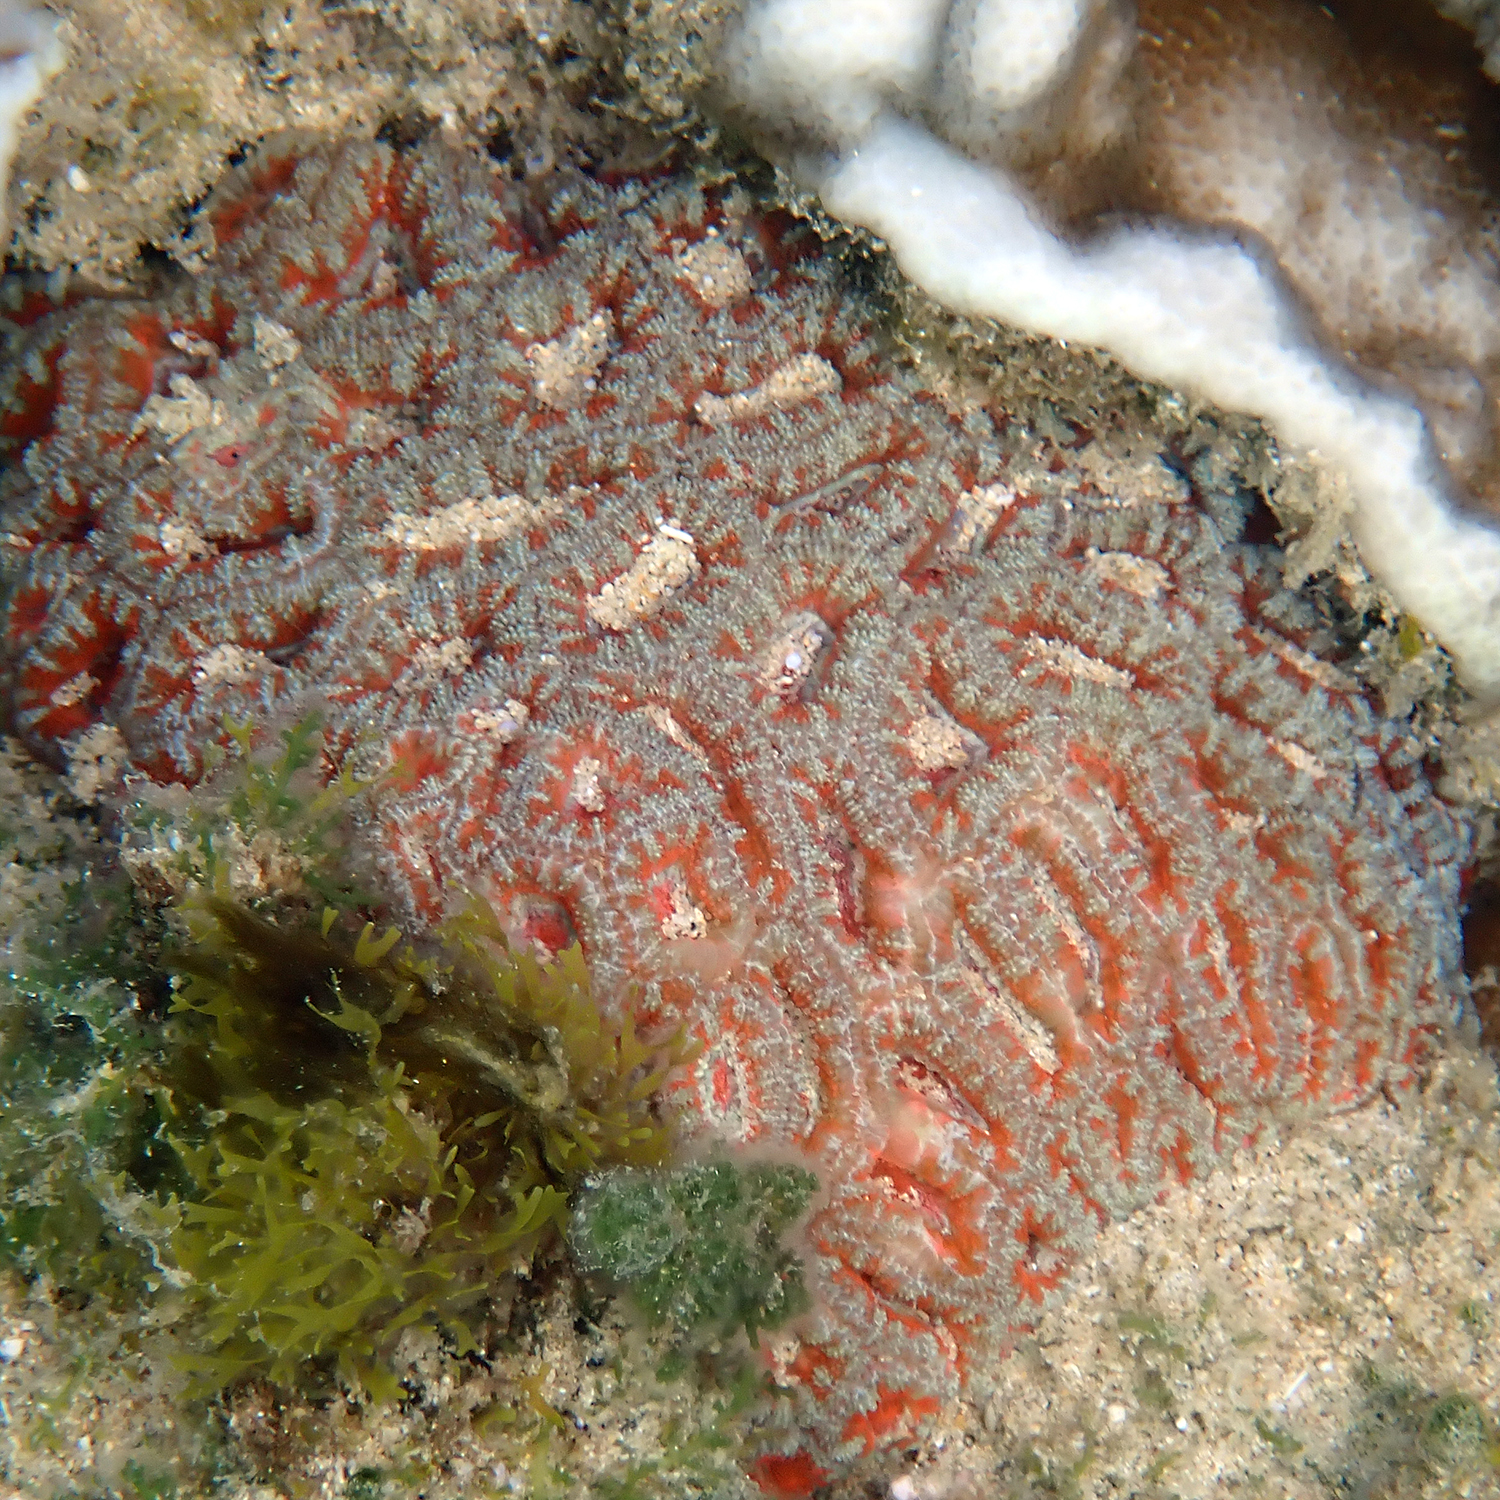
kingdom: Animalia
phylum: Cnidaria
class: Anthozoa
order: Scleractinia
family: Lobophylliidae
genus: Micromussa
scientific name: Micromussa lordhowensis
